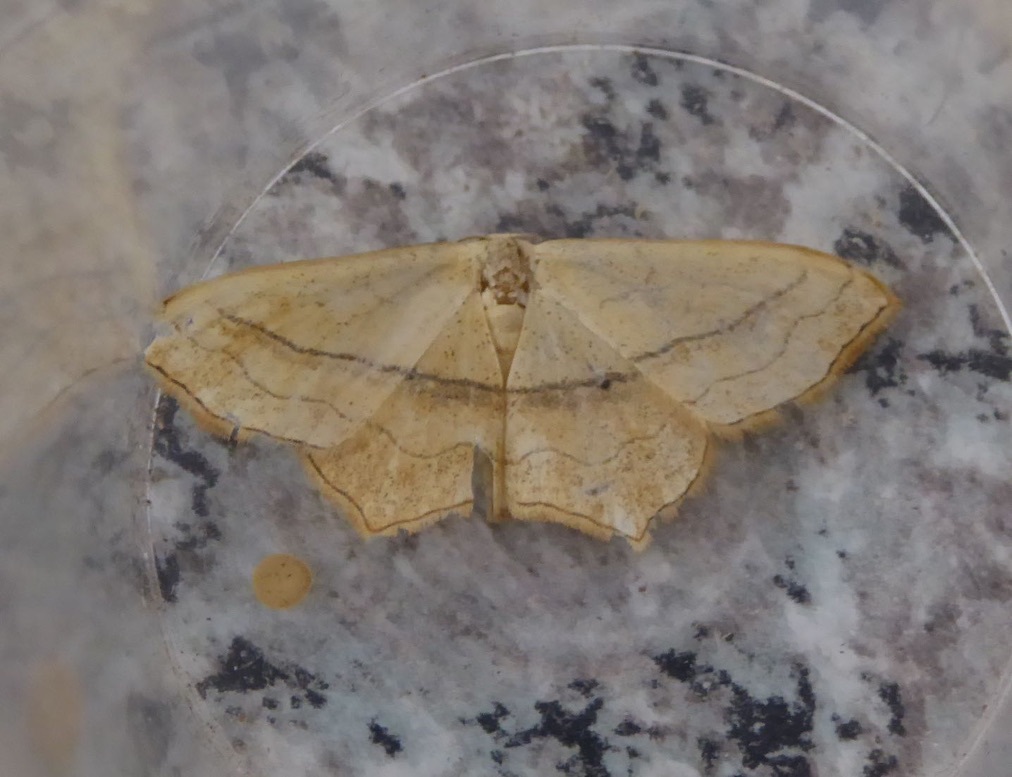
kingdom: Animalia
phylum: Arthropoda
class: Insecta
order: Lepidoptera
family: Geometridae
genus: Scopula
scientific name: Scopula imitaria
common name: Small blood-vein
